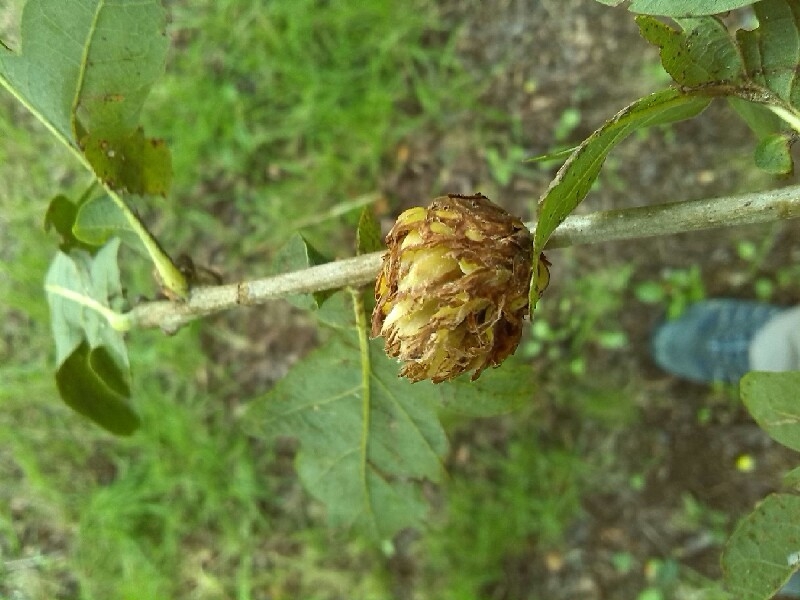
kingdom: Animalia
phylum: Arthropoda
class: Insecta
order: Hymenoptera
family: Cynipidae
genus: Andricus
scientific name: Andricus foecundatrix
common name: Artichoke gall
